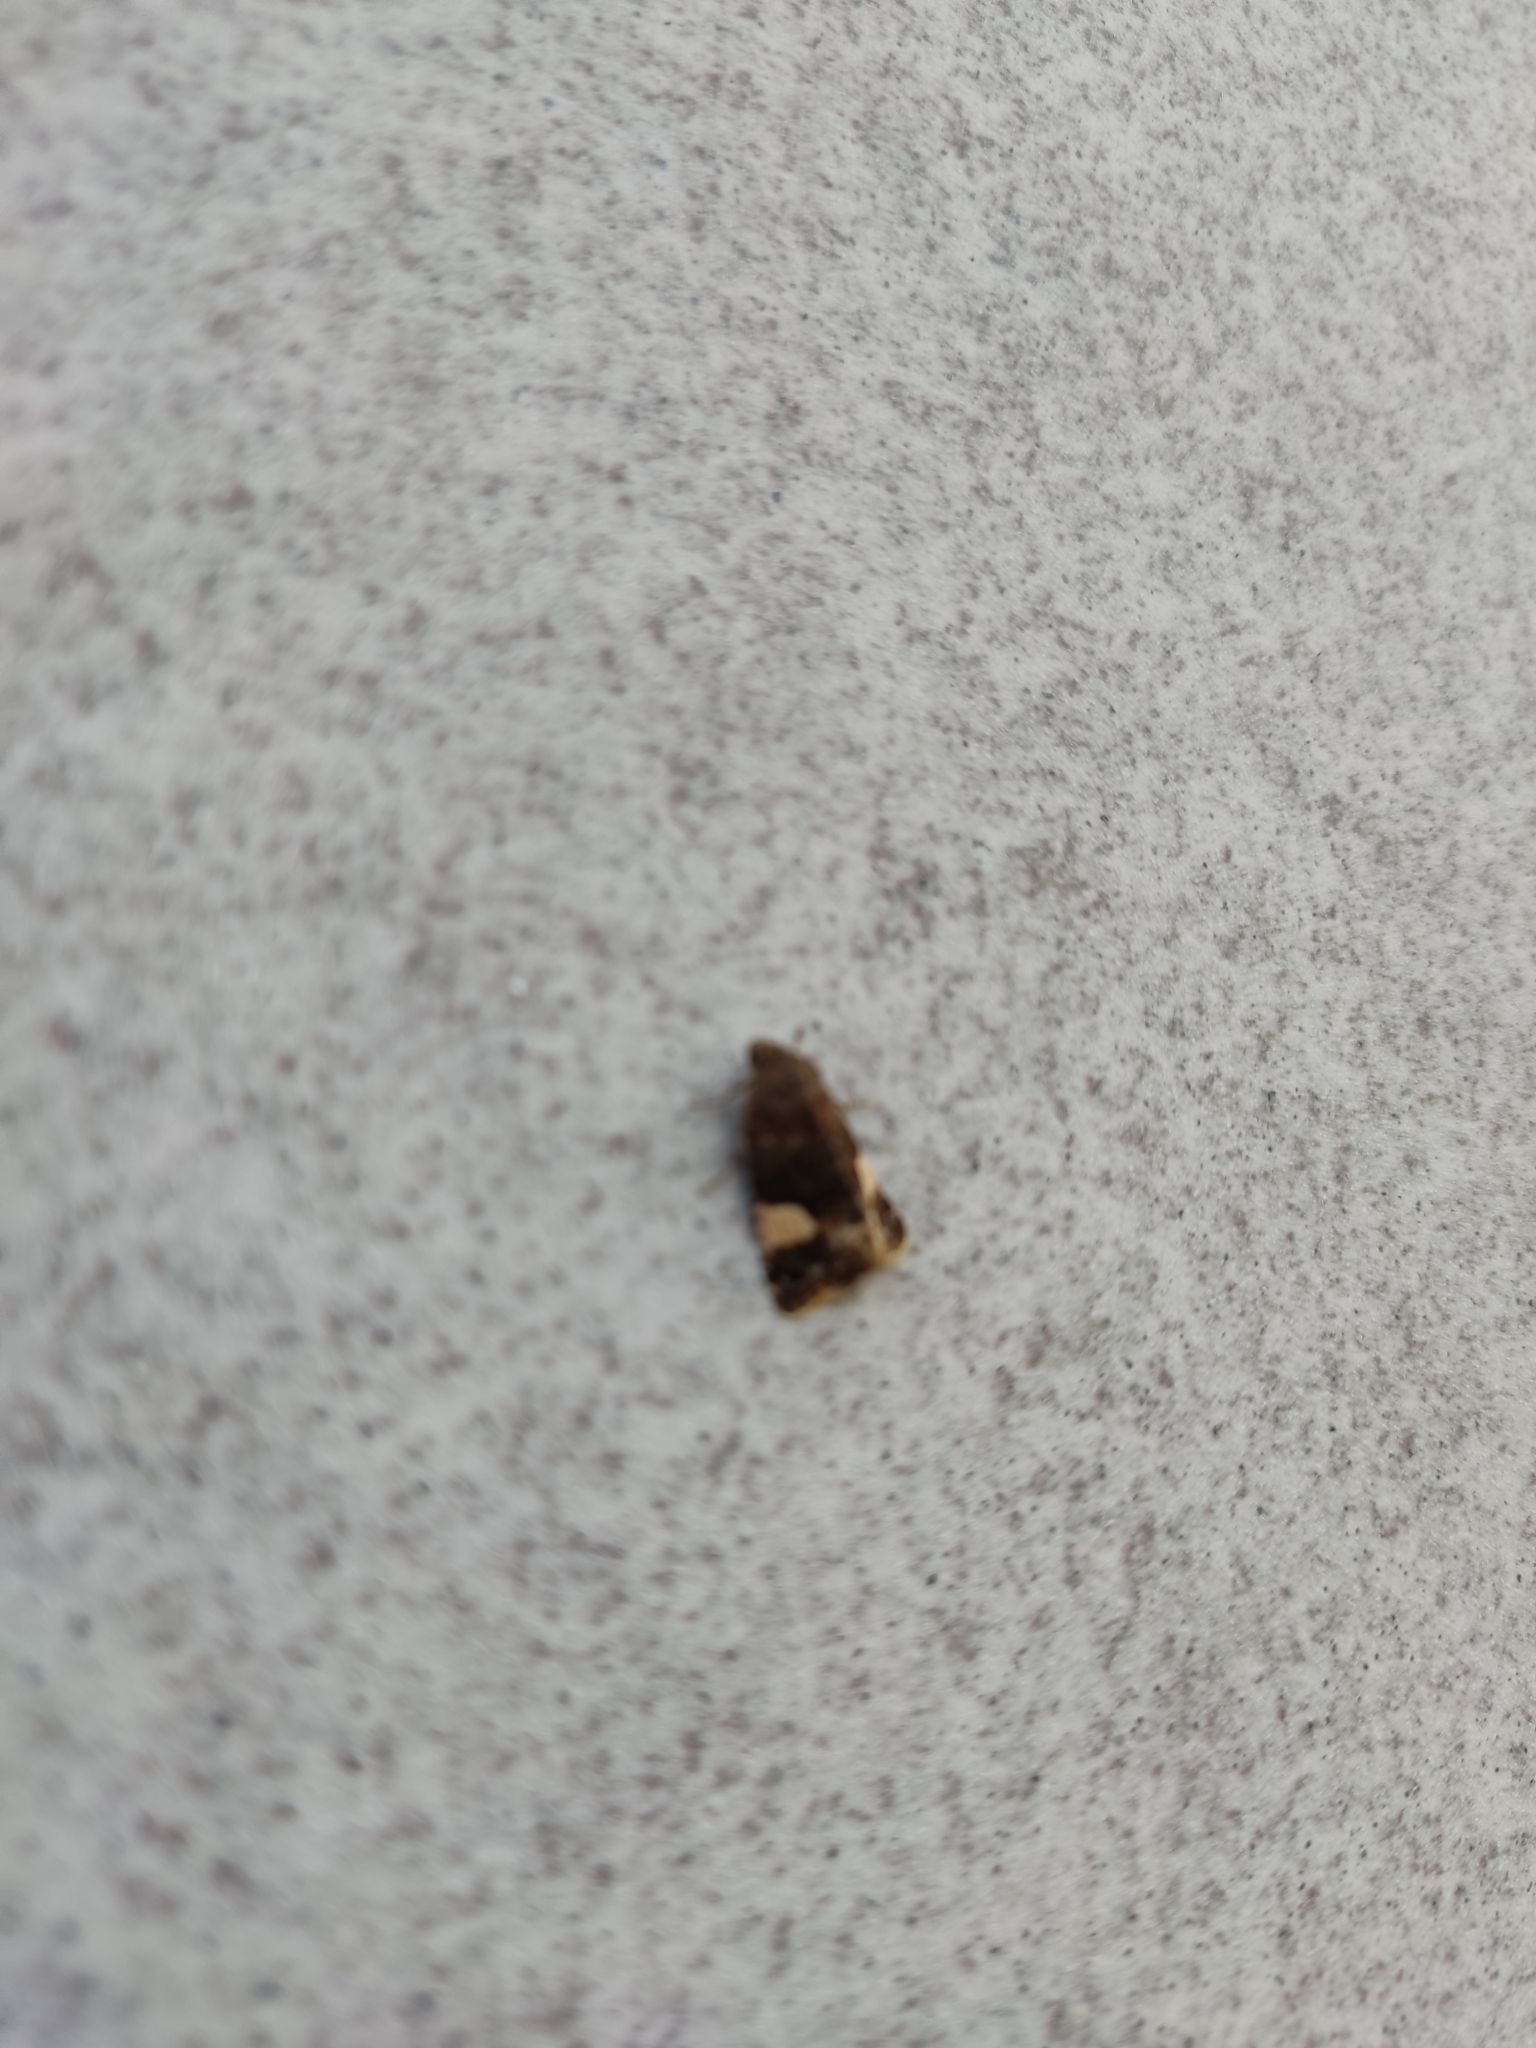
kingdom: Animalia
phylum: Arthropoda
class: Insecta
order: Lepidoptera
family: Erebidae
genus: Tyta
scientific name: Tyta luctuosa
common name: Four-spotted
